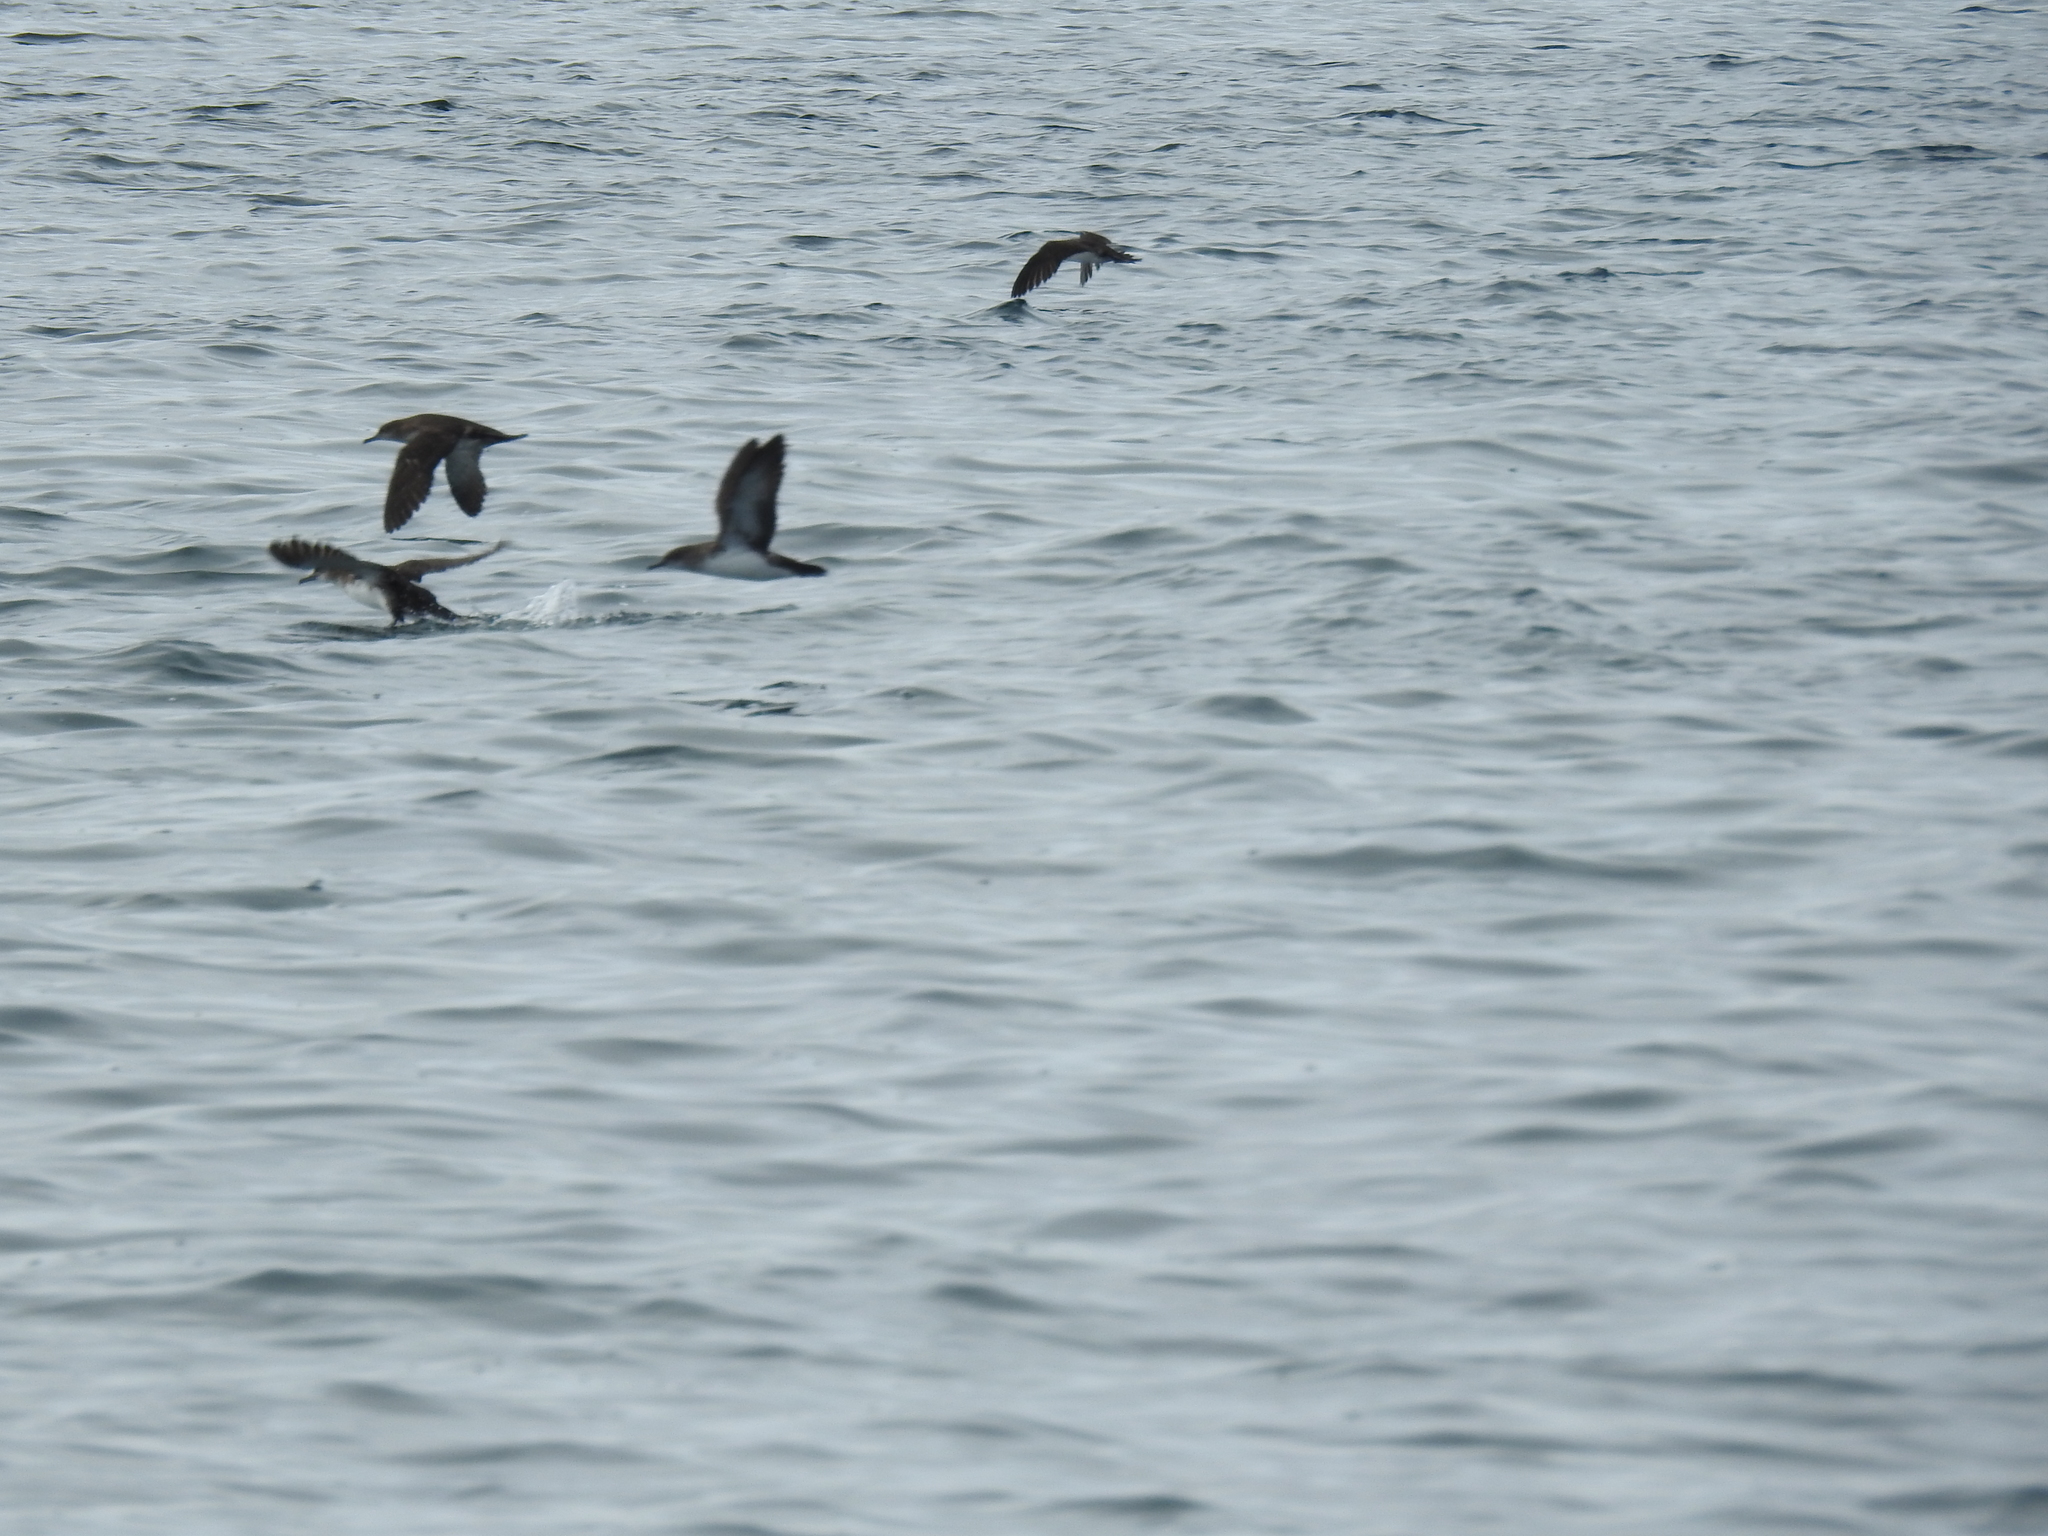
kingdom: Animalia
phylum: Chordata
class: Aves
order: Procellariiformes
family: Procellariidae
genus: Puffinus
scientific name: Puffinus opisthomelas
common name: Black-vented shearwater
